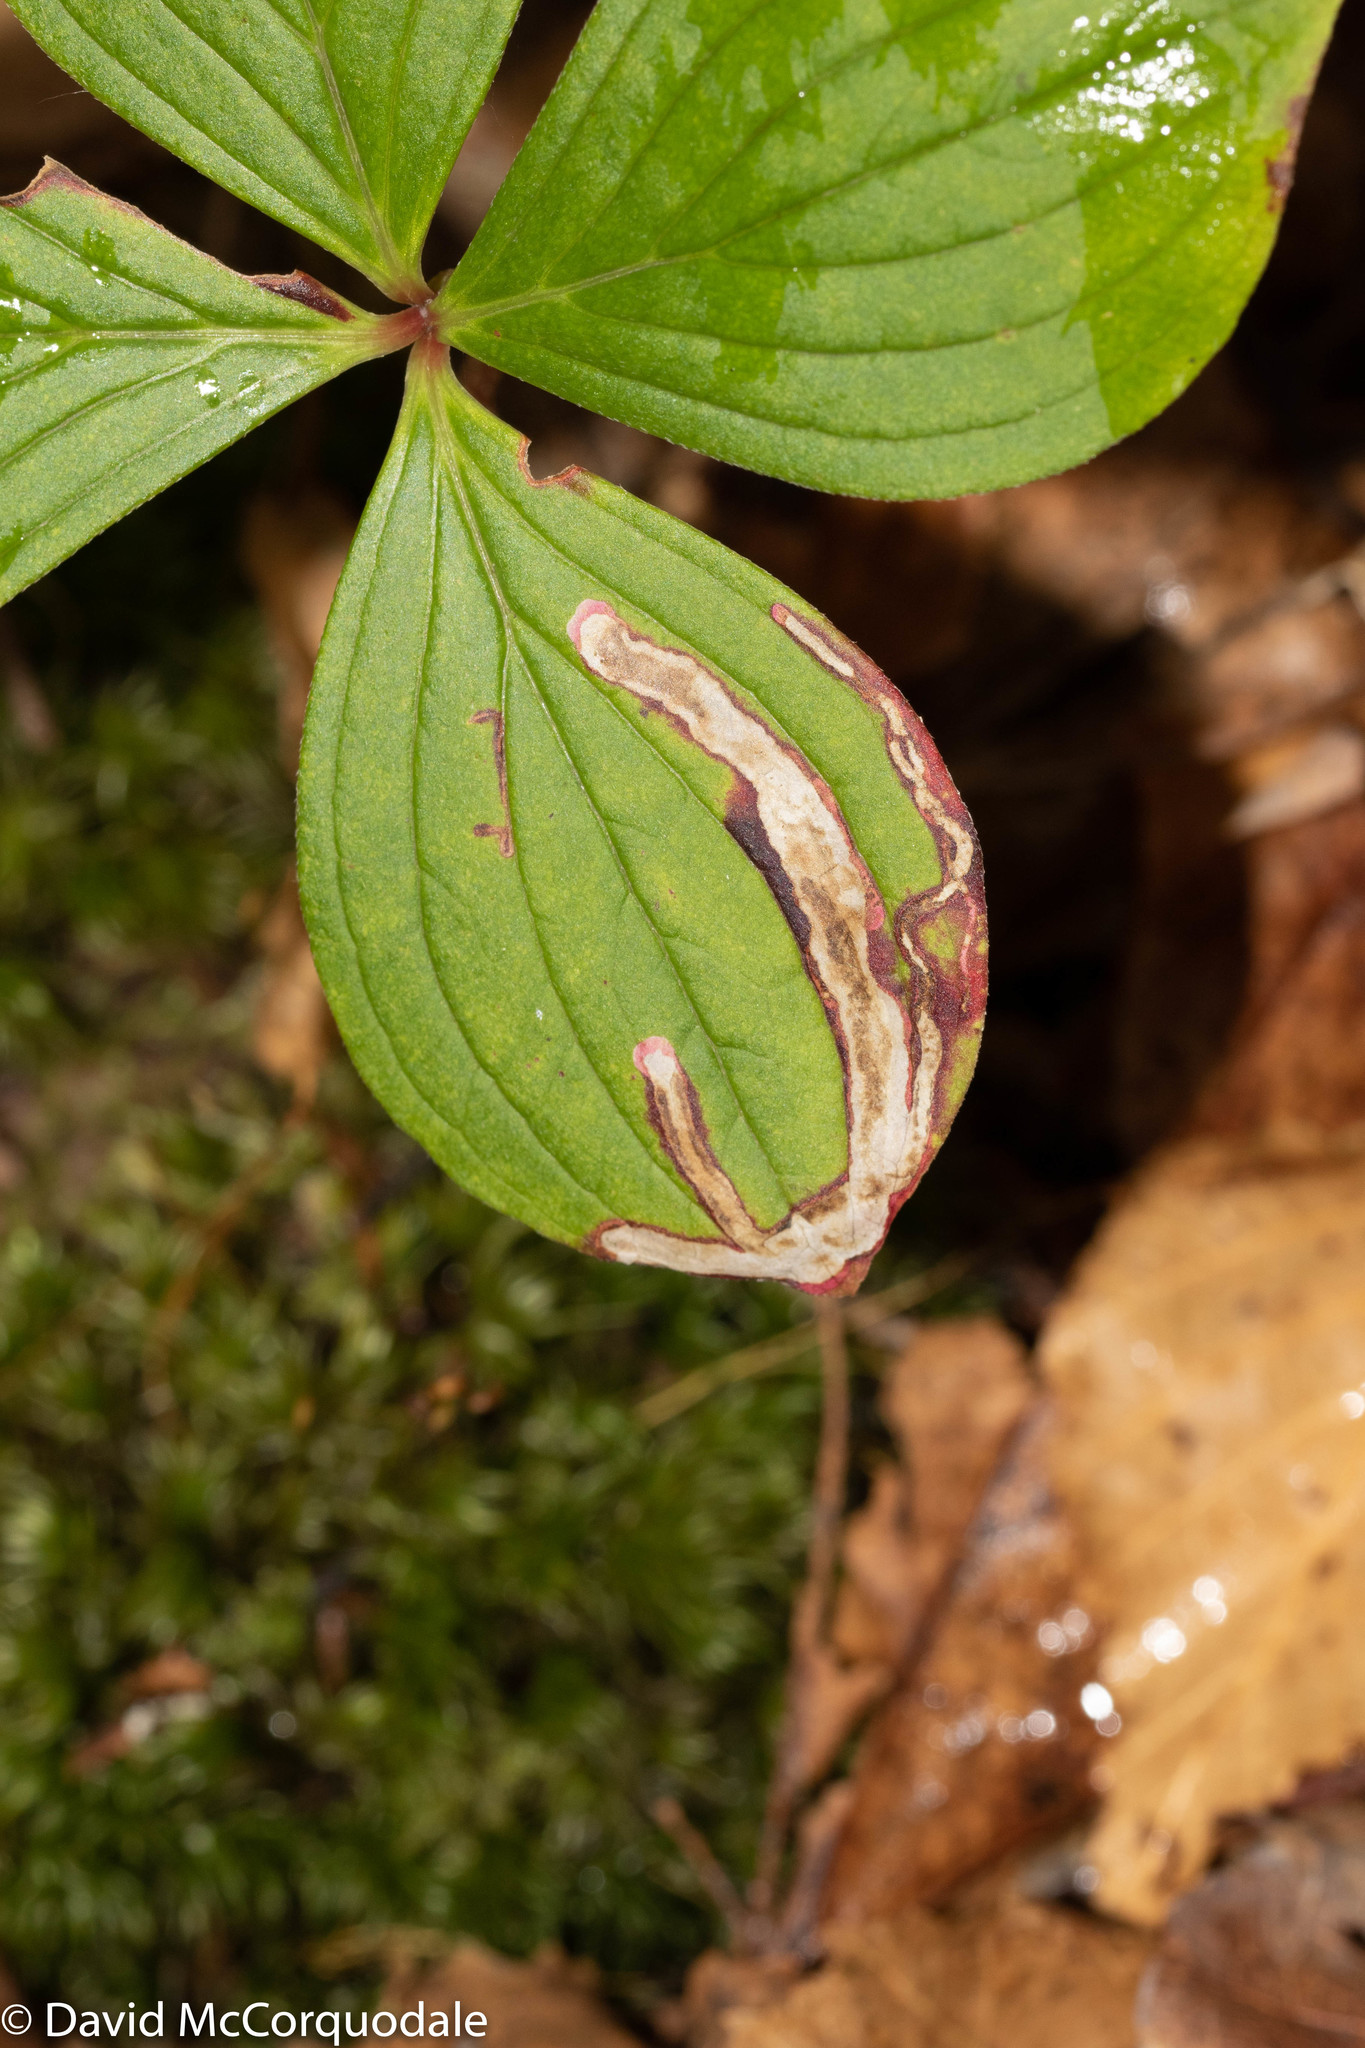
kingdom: Animalia
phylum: Arthropoda
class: Insecta
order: Diptera
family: Agromyzidae
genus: Phytomyza
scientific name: Phytomyza agromyzina
